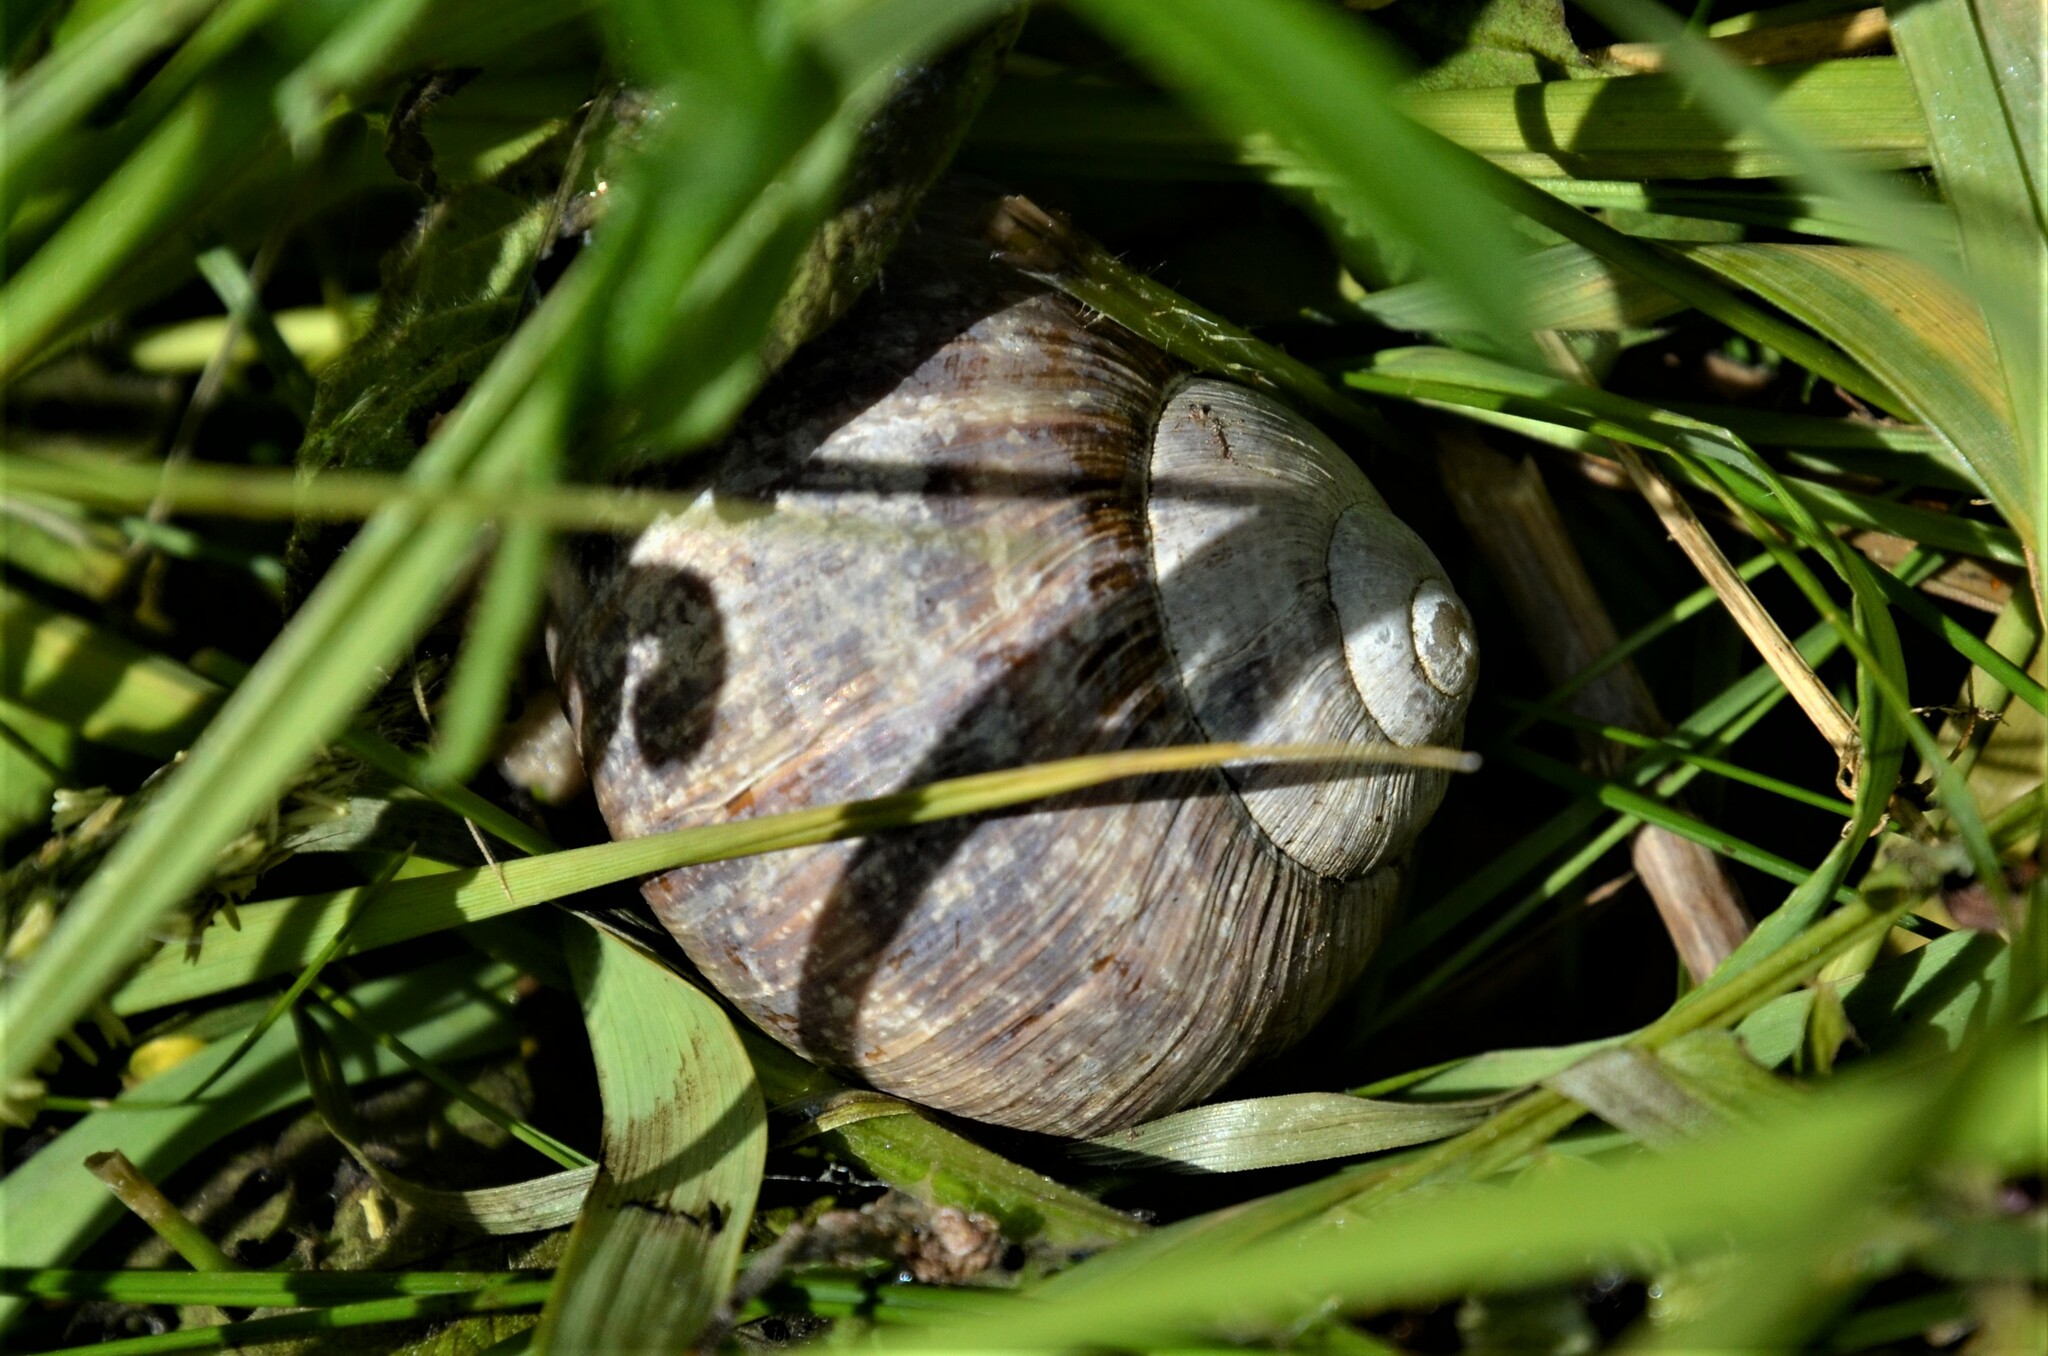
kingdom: Animalia
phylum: Mollusca
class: Gastropoda
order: Stylommatophora
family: Helicidae
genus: Helix
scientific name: Helix pomatia
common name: Roman snail
